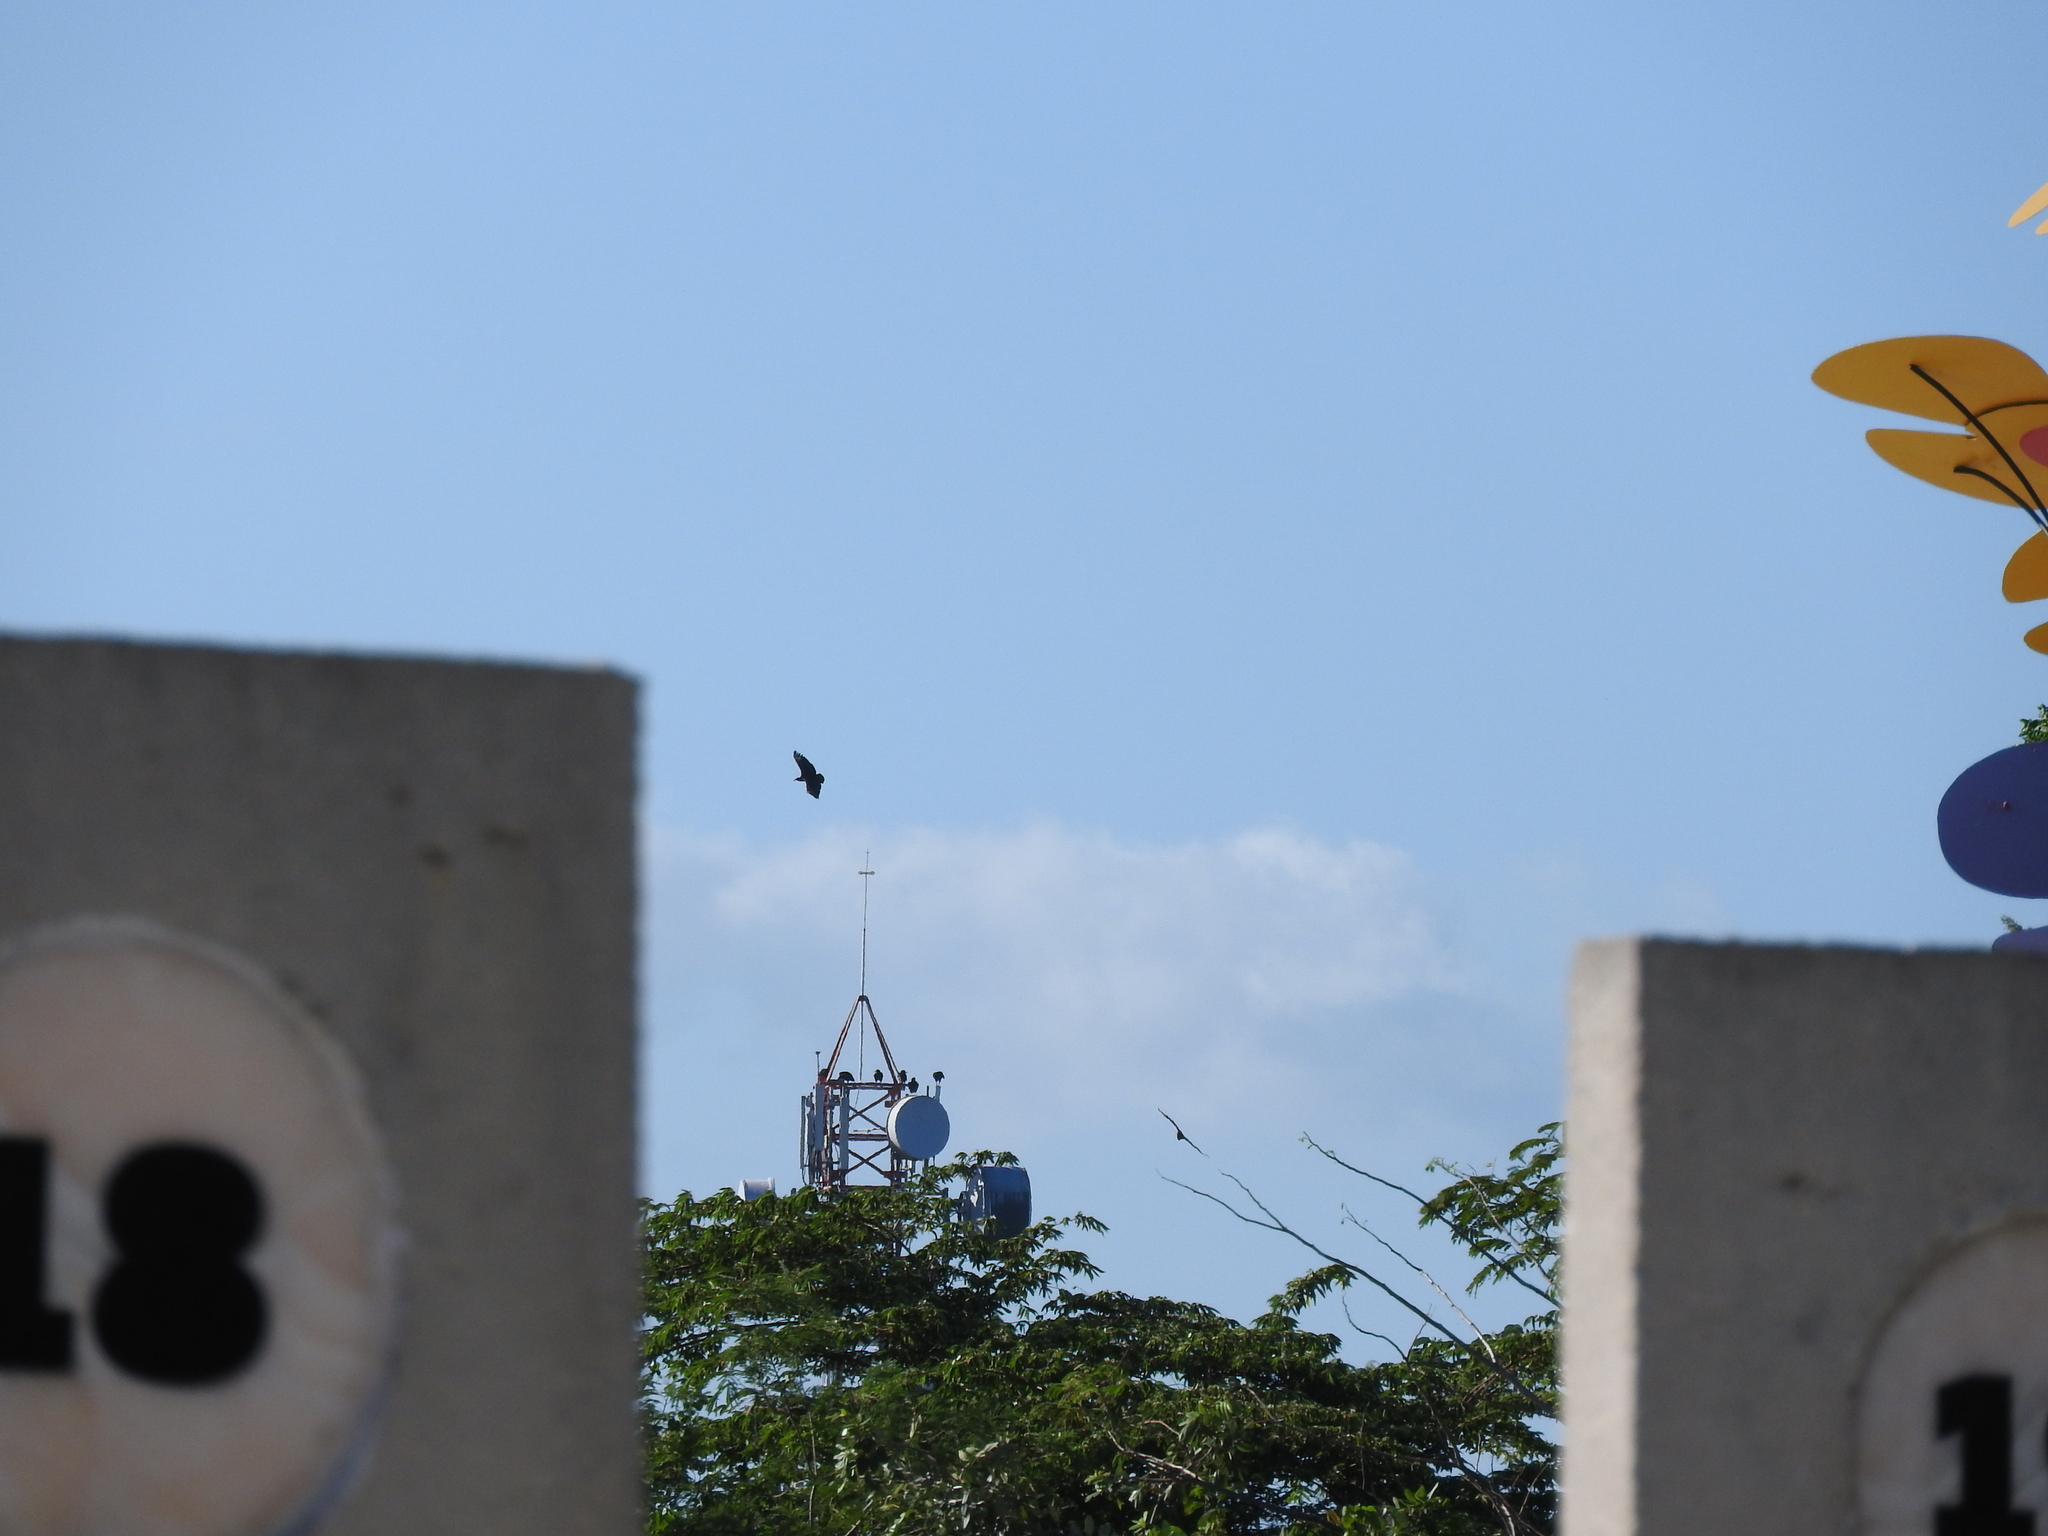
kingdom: Animalia
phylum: Chordata
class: Aves
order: Accipitriformes
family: Cathartidae
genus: Coragyps
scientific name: Coragyps atratus
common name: Black vulture
